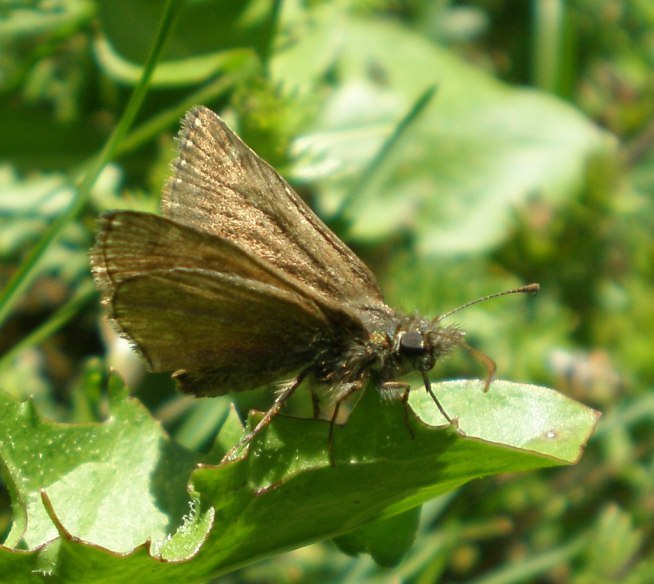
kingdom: Animalia
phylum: Arthropoda
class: Insecta
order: Lepidoptera
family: Hesperiidae
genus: Erynnis
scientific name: Erynnis tages
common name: Dingy skipper
